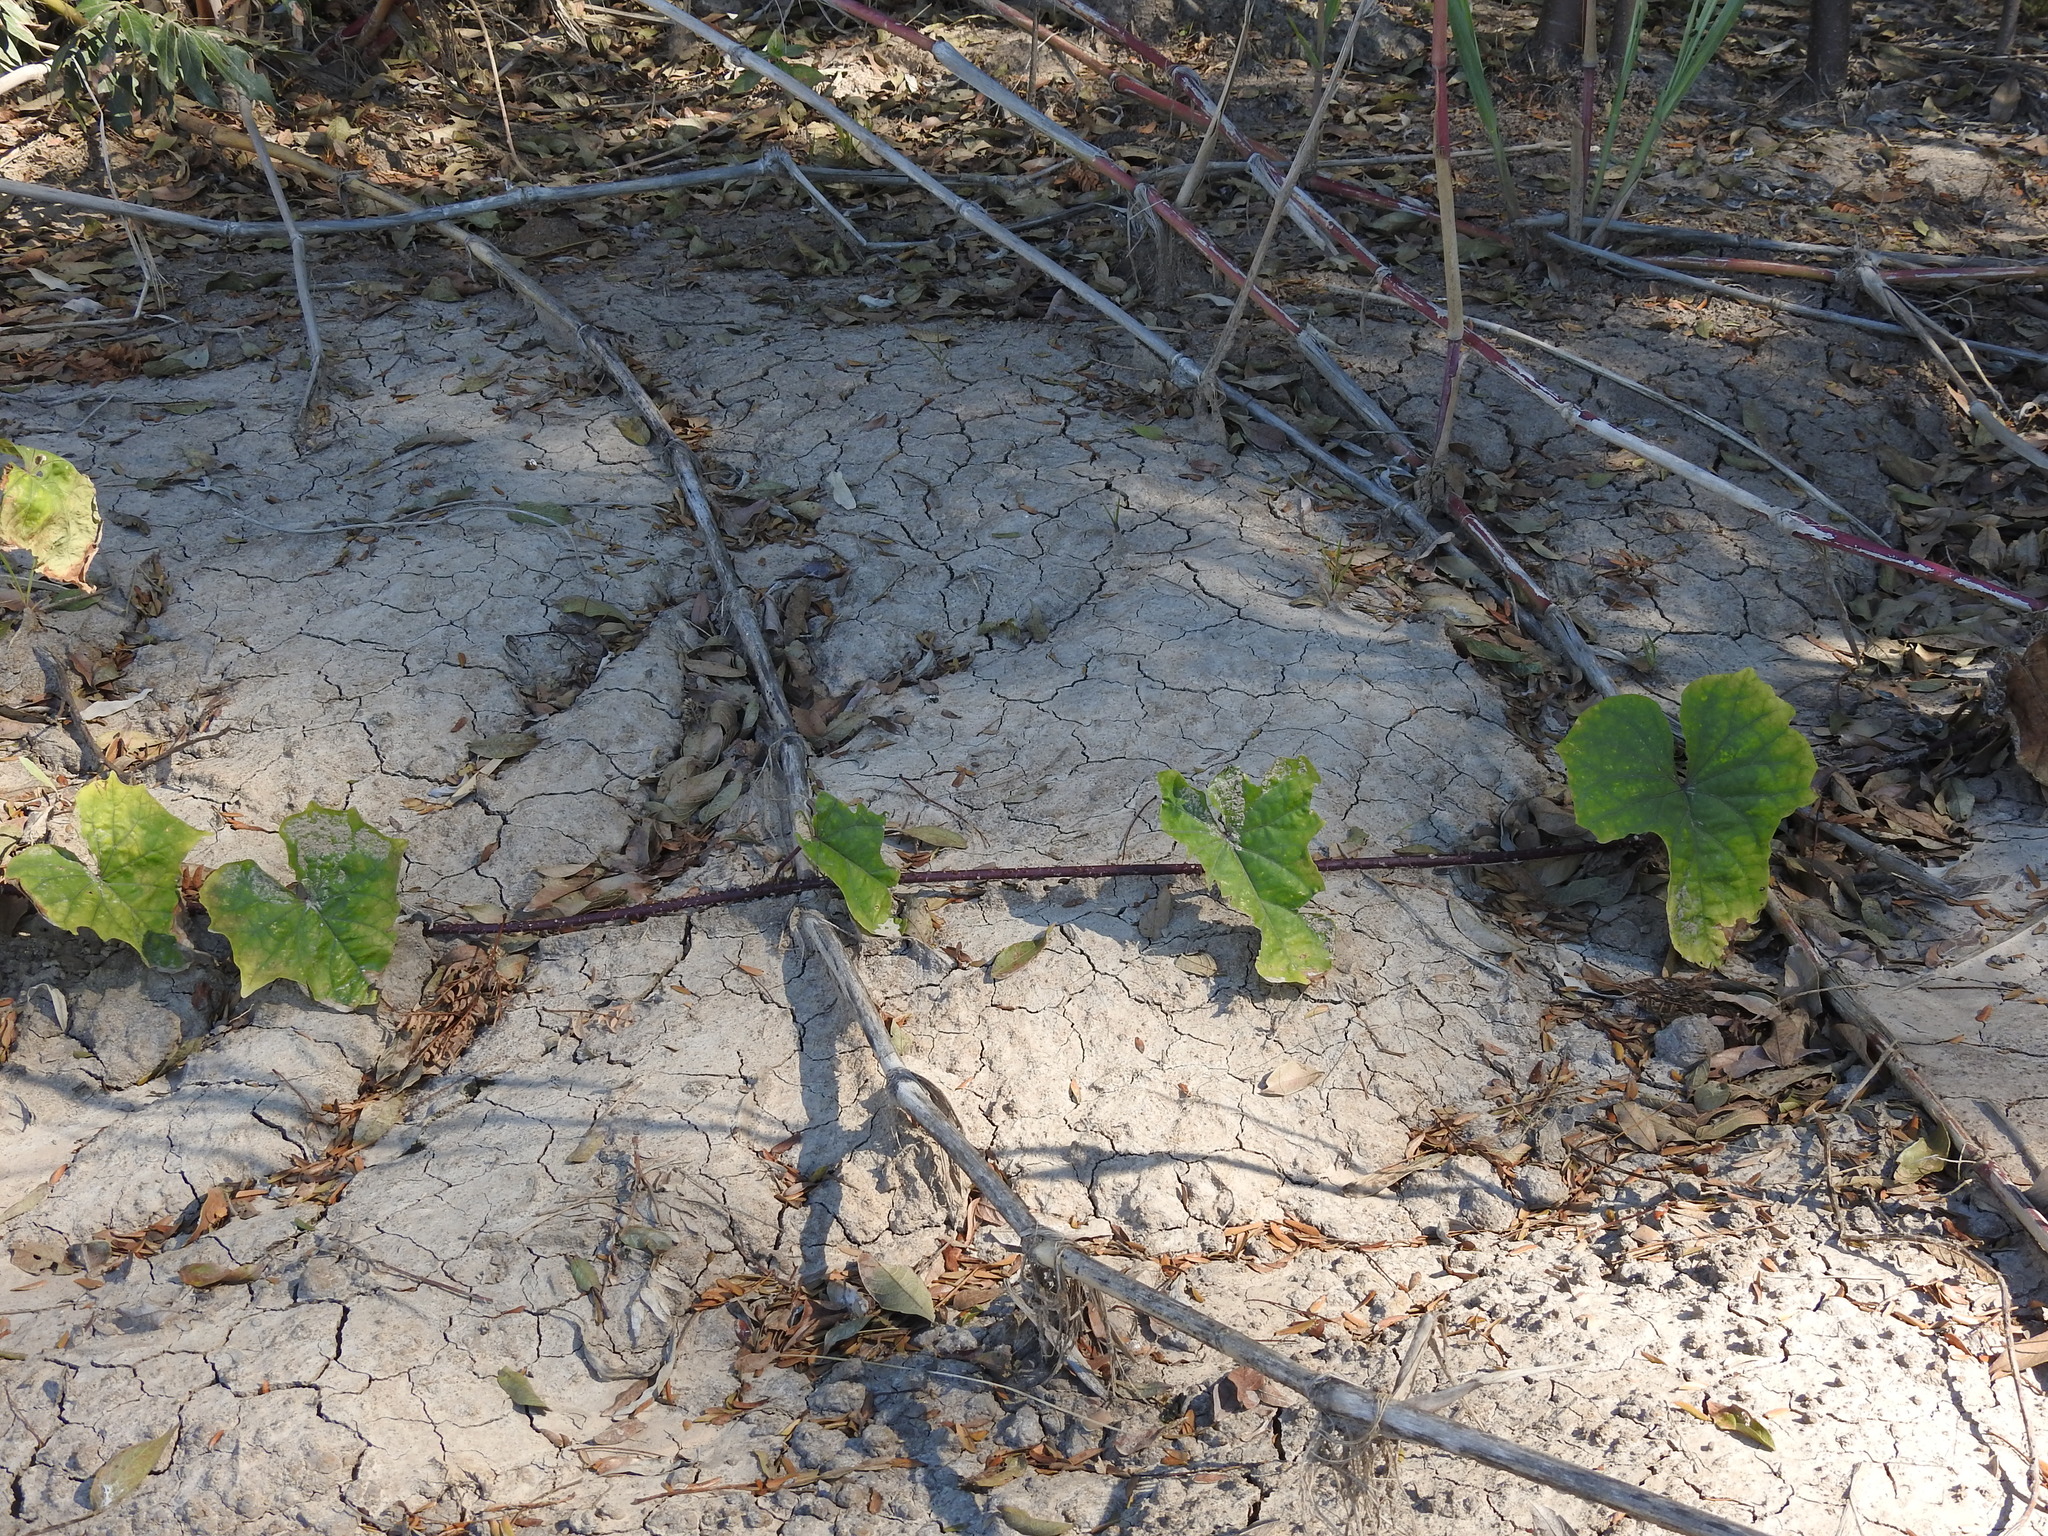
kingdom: Plantae
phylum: Tracheophyta
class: Magnoliopsida
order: Solanales
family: Convolvulaceae
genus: Ipomoea
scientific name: Ipomoea alba
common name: Moonflower
